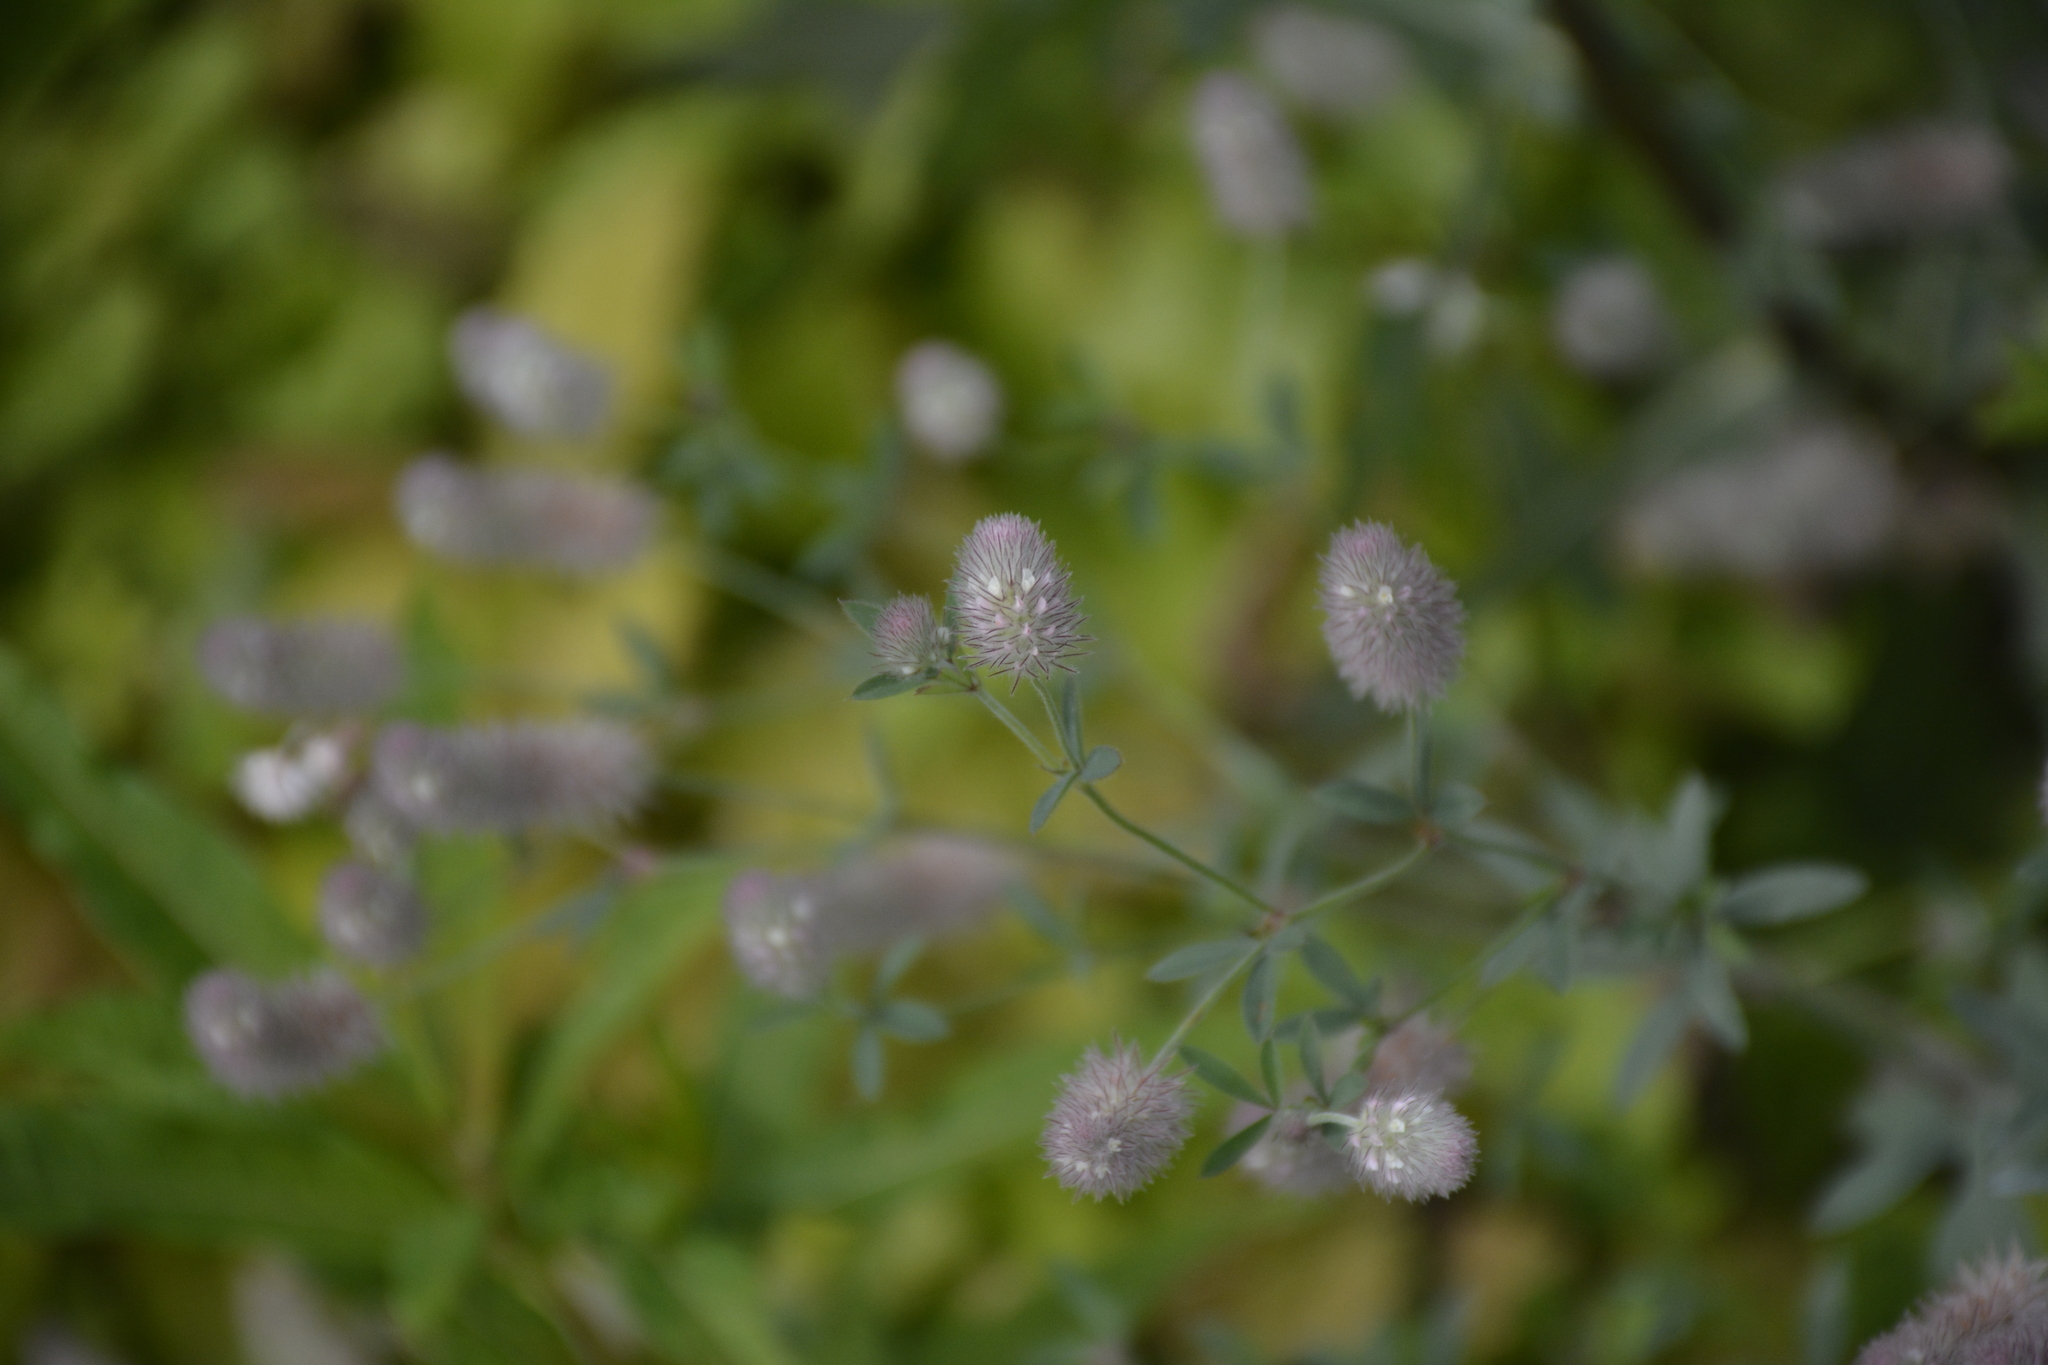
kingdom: Plantae
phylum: Tracheophyta
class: Magnoliopsida
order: Fabales
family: Fabaceae
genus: Trifolium
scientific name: Trifolium arvense
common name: Hare's-foot clover
